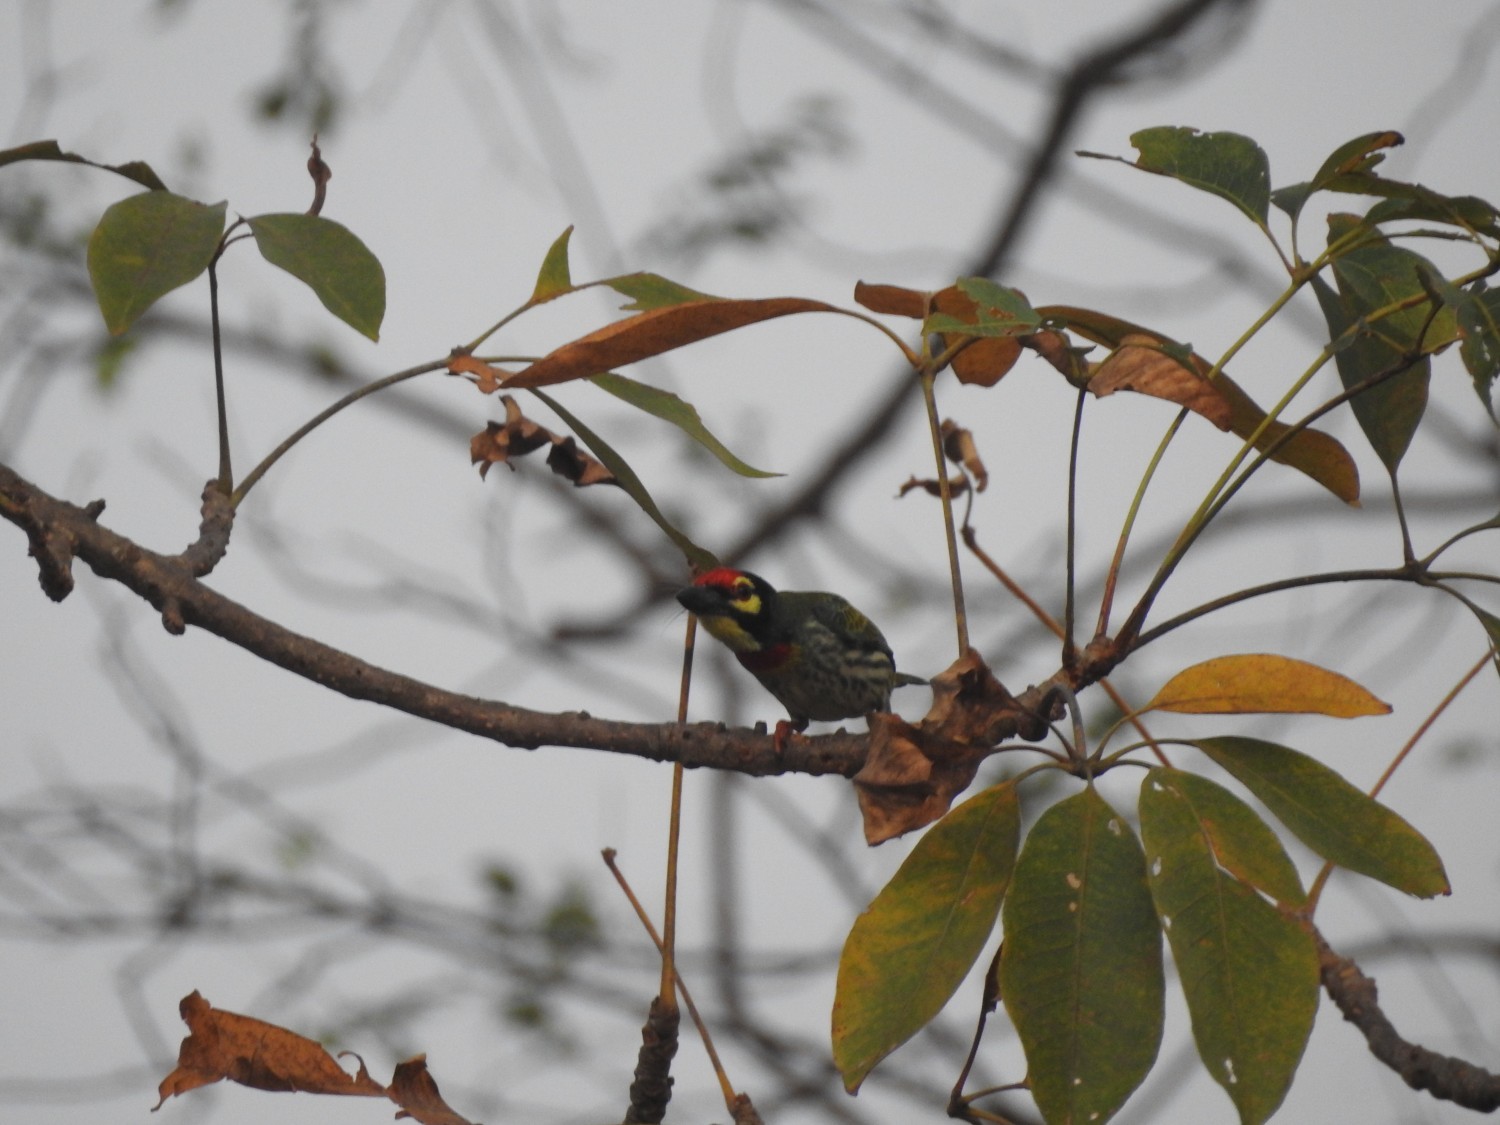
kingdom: Animalia
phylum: Chordata
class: Aves
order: Piciformes
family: Megalaimidae
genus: Psilopogon
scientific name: Psilopogon haemacephalus
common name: Coppersmith barbet
